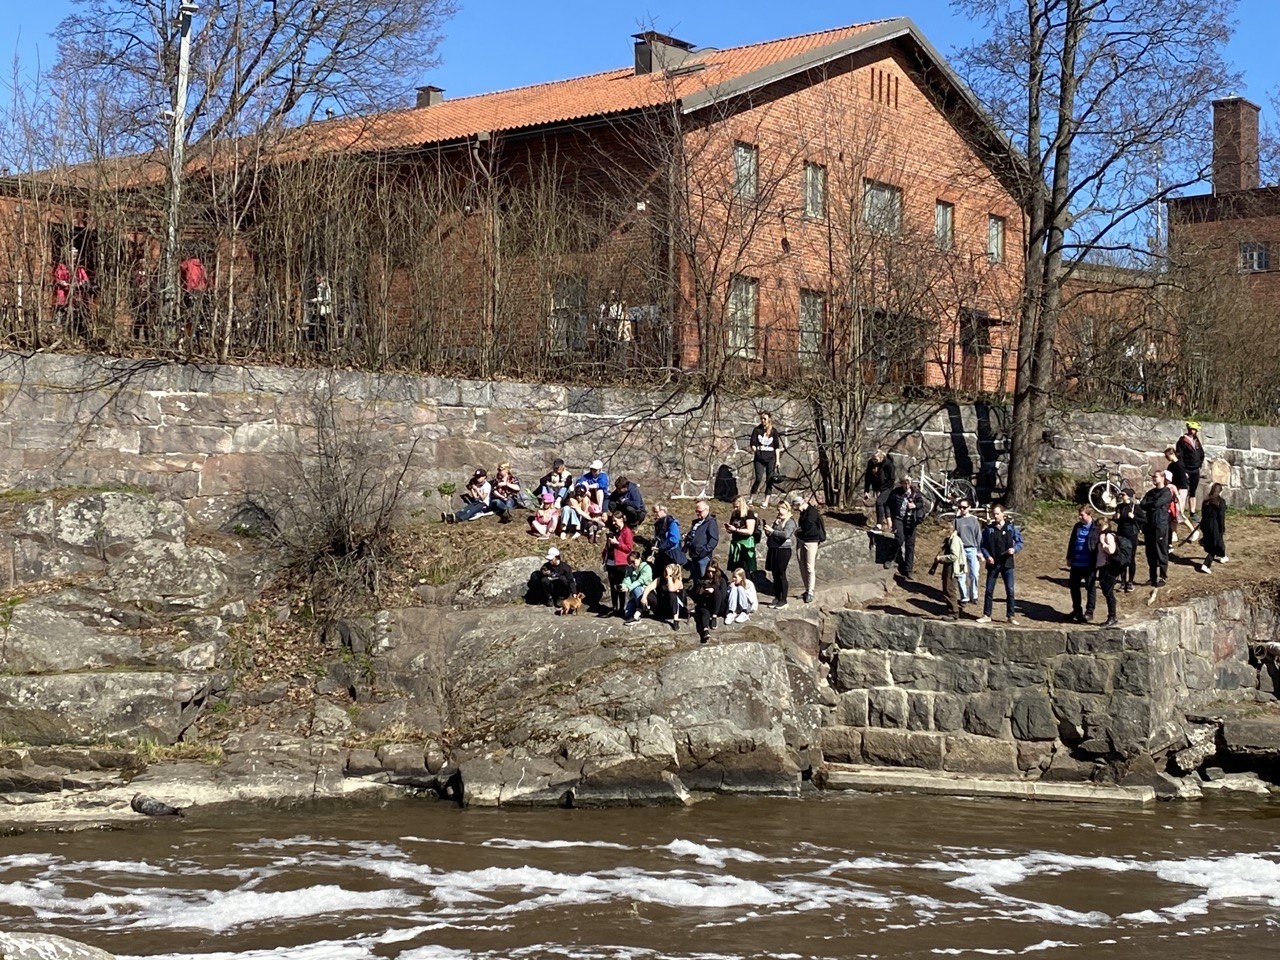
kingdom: Animalia
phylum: Chordata
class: Mammalia
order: Carnivora
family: Phocidae
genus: Halichoerus
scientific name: Halichoerus grypus
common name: Grey seal
